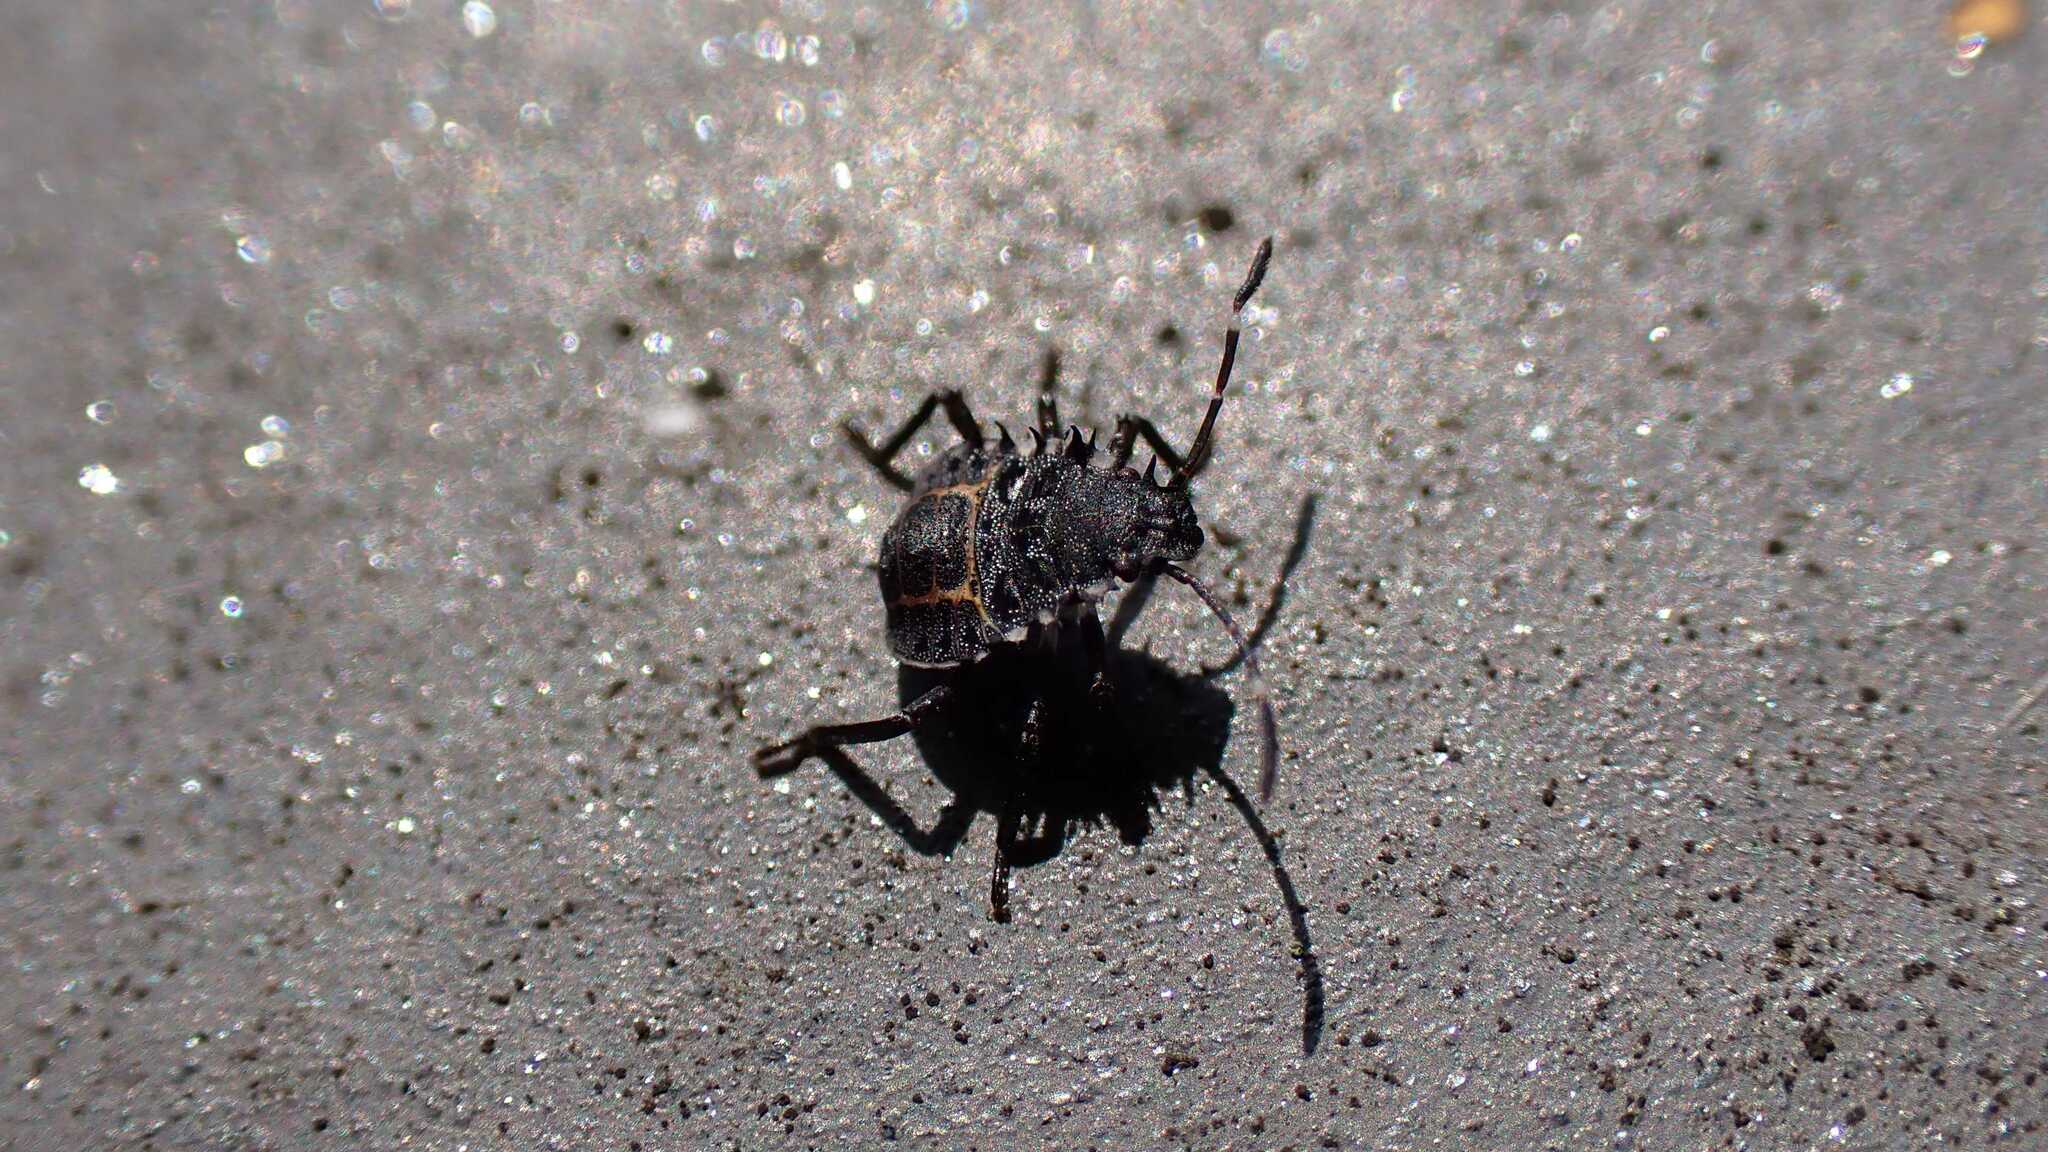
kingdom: Animalia
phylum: Arthropoda
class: Insecta
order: Hemiptera
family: Pentatomidae
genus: Halyomorpha
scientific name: Halyomorpha halys
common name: Brown marmorated stink bug
